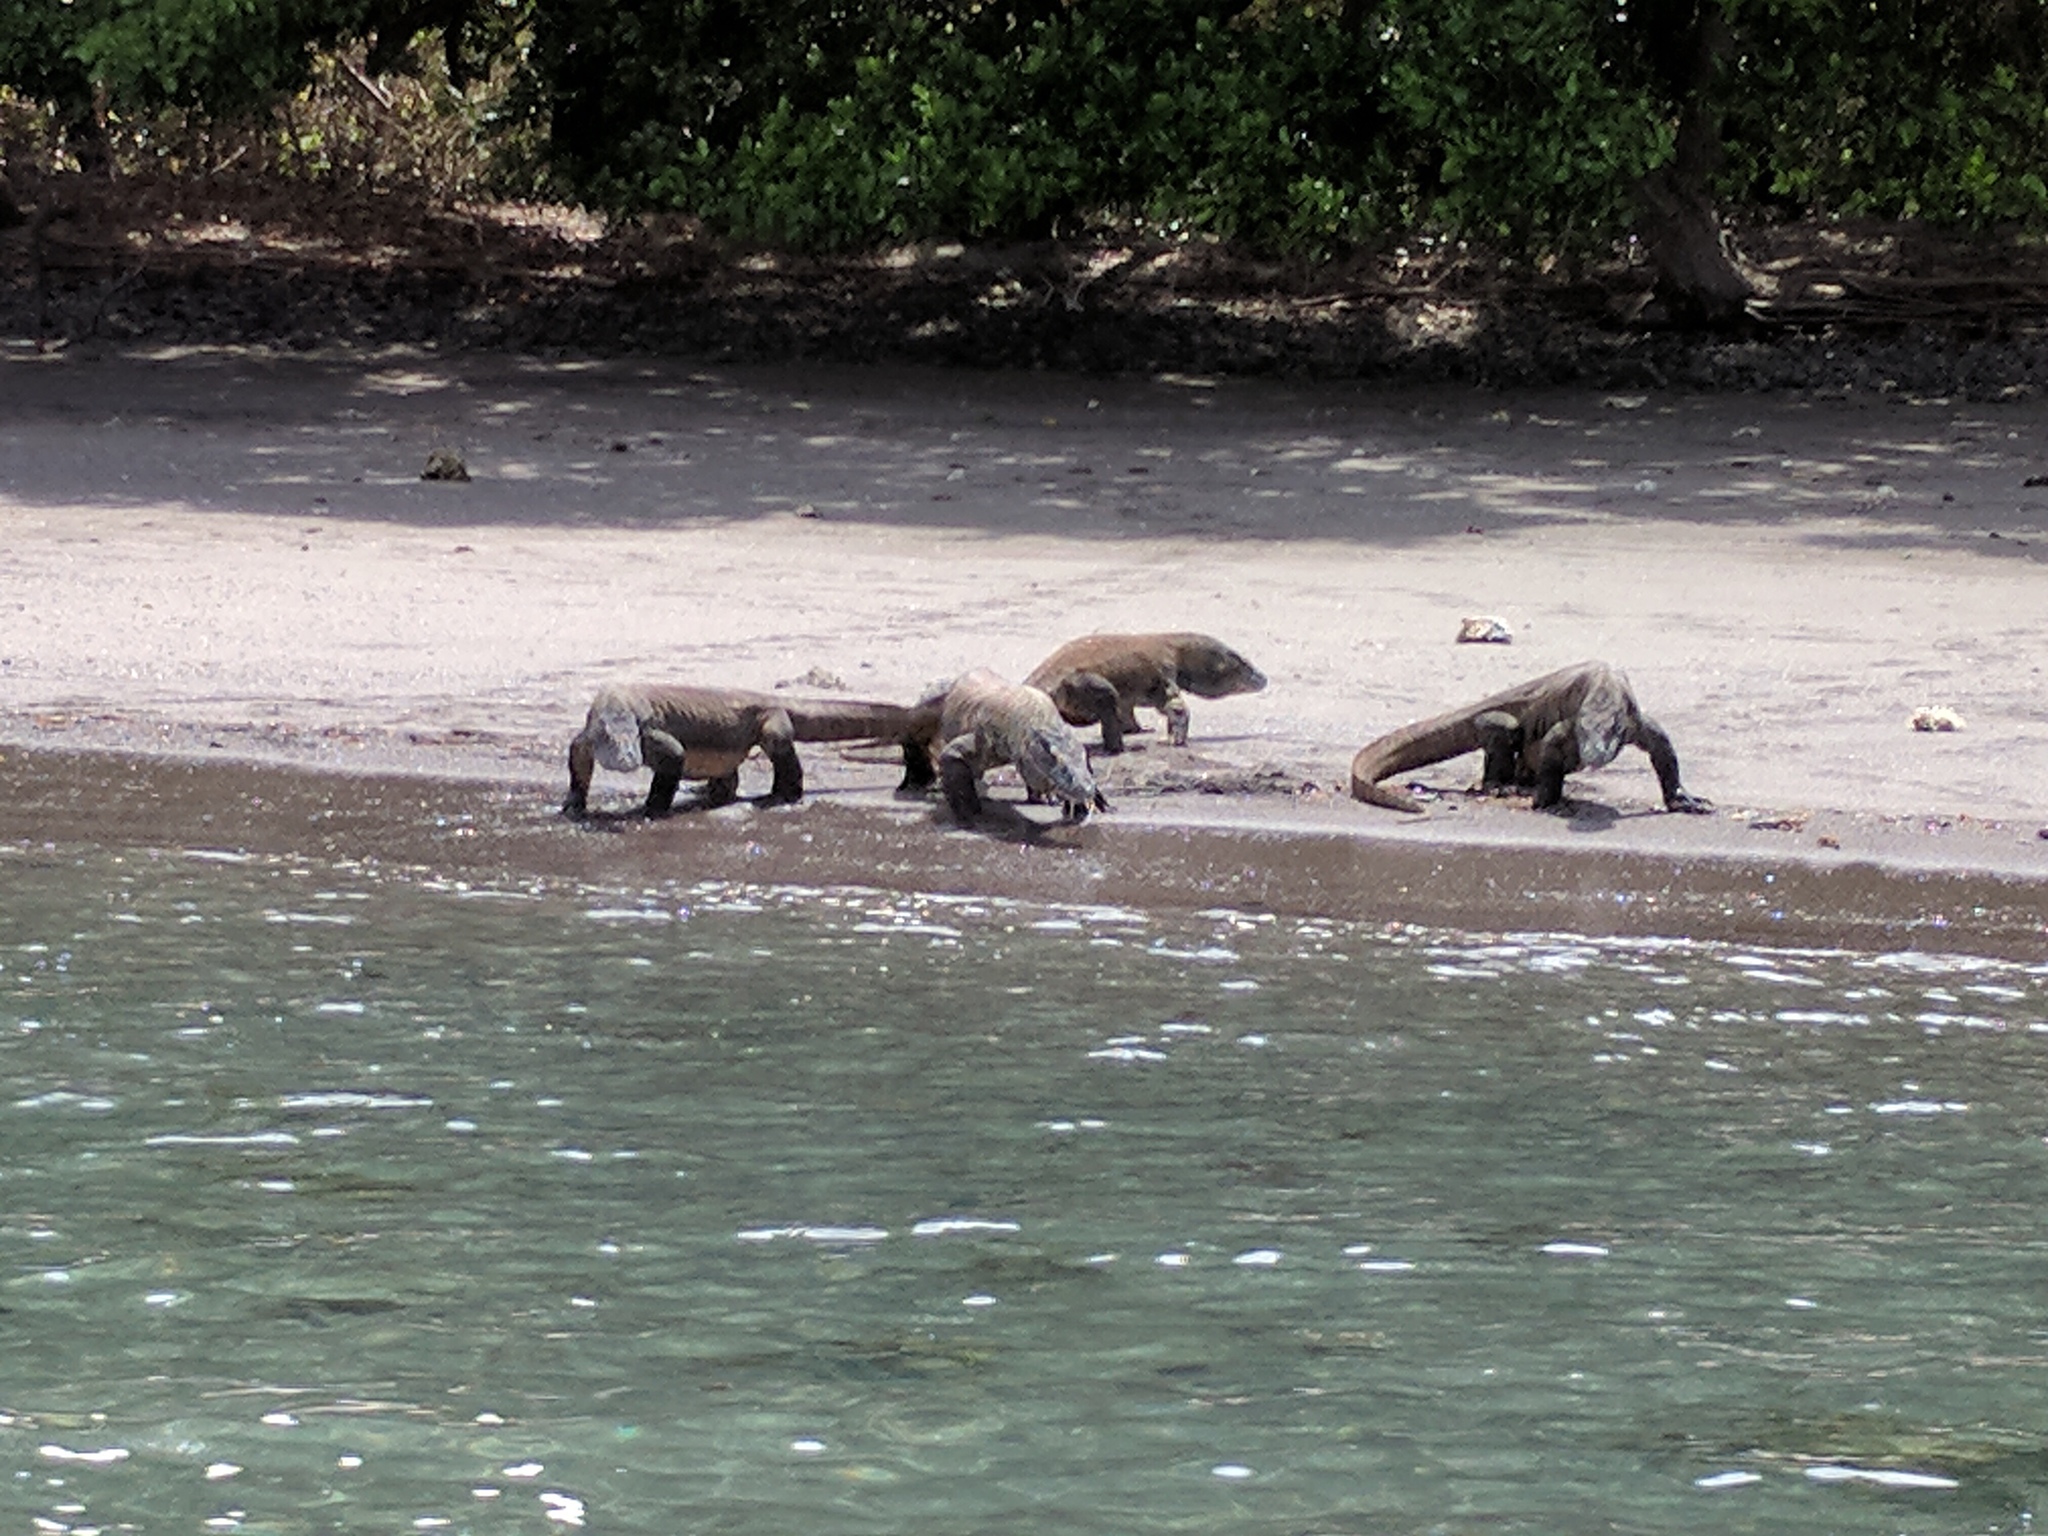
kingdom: Animalia
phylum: Chordata
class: Squamata
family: Varanidae
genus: Varanus
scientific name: Varanus komodoensis
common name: Komodo dragon
